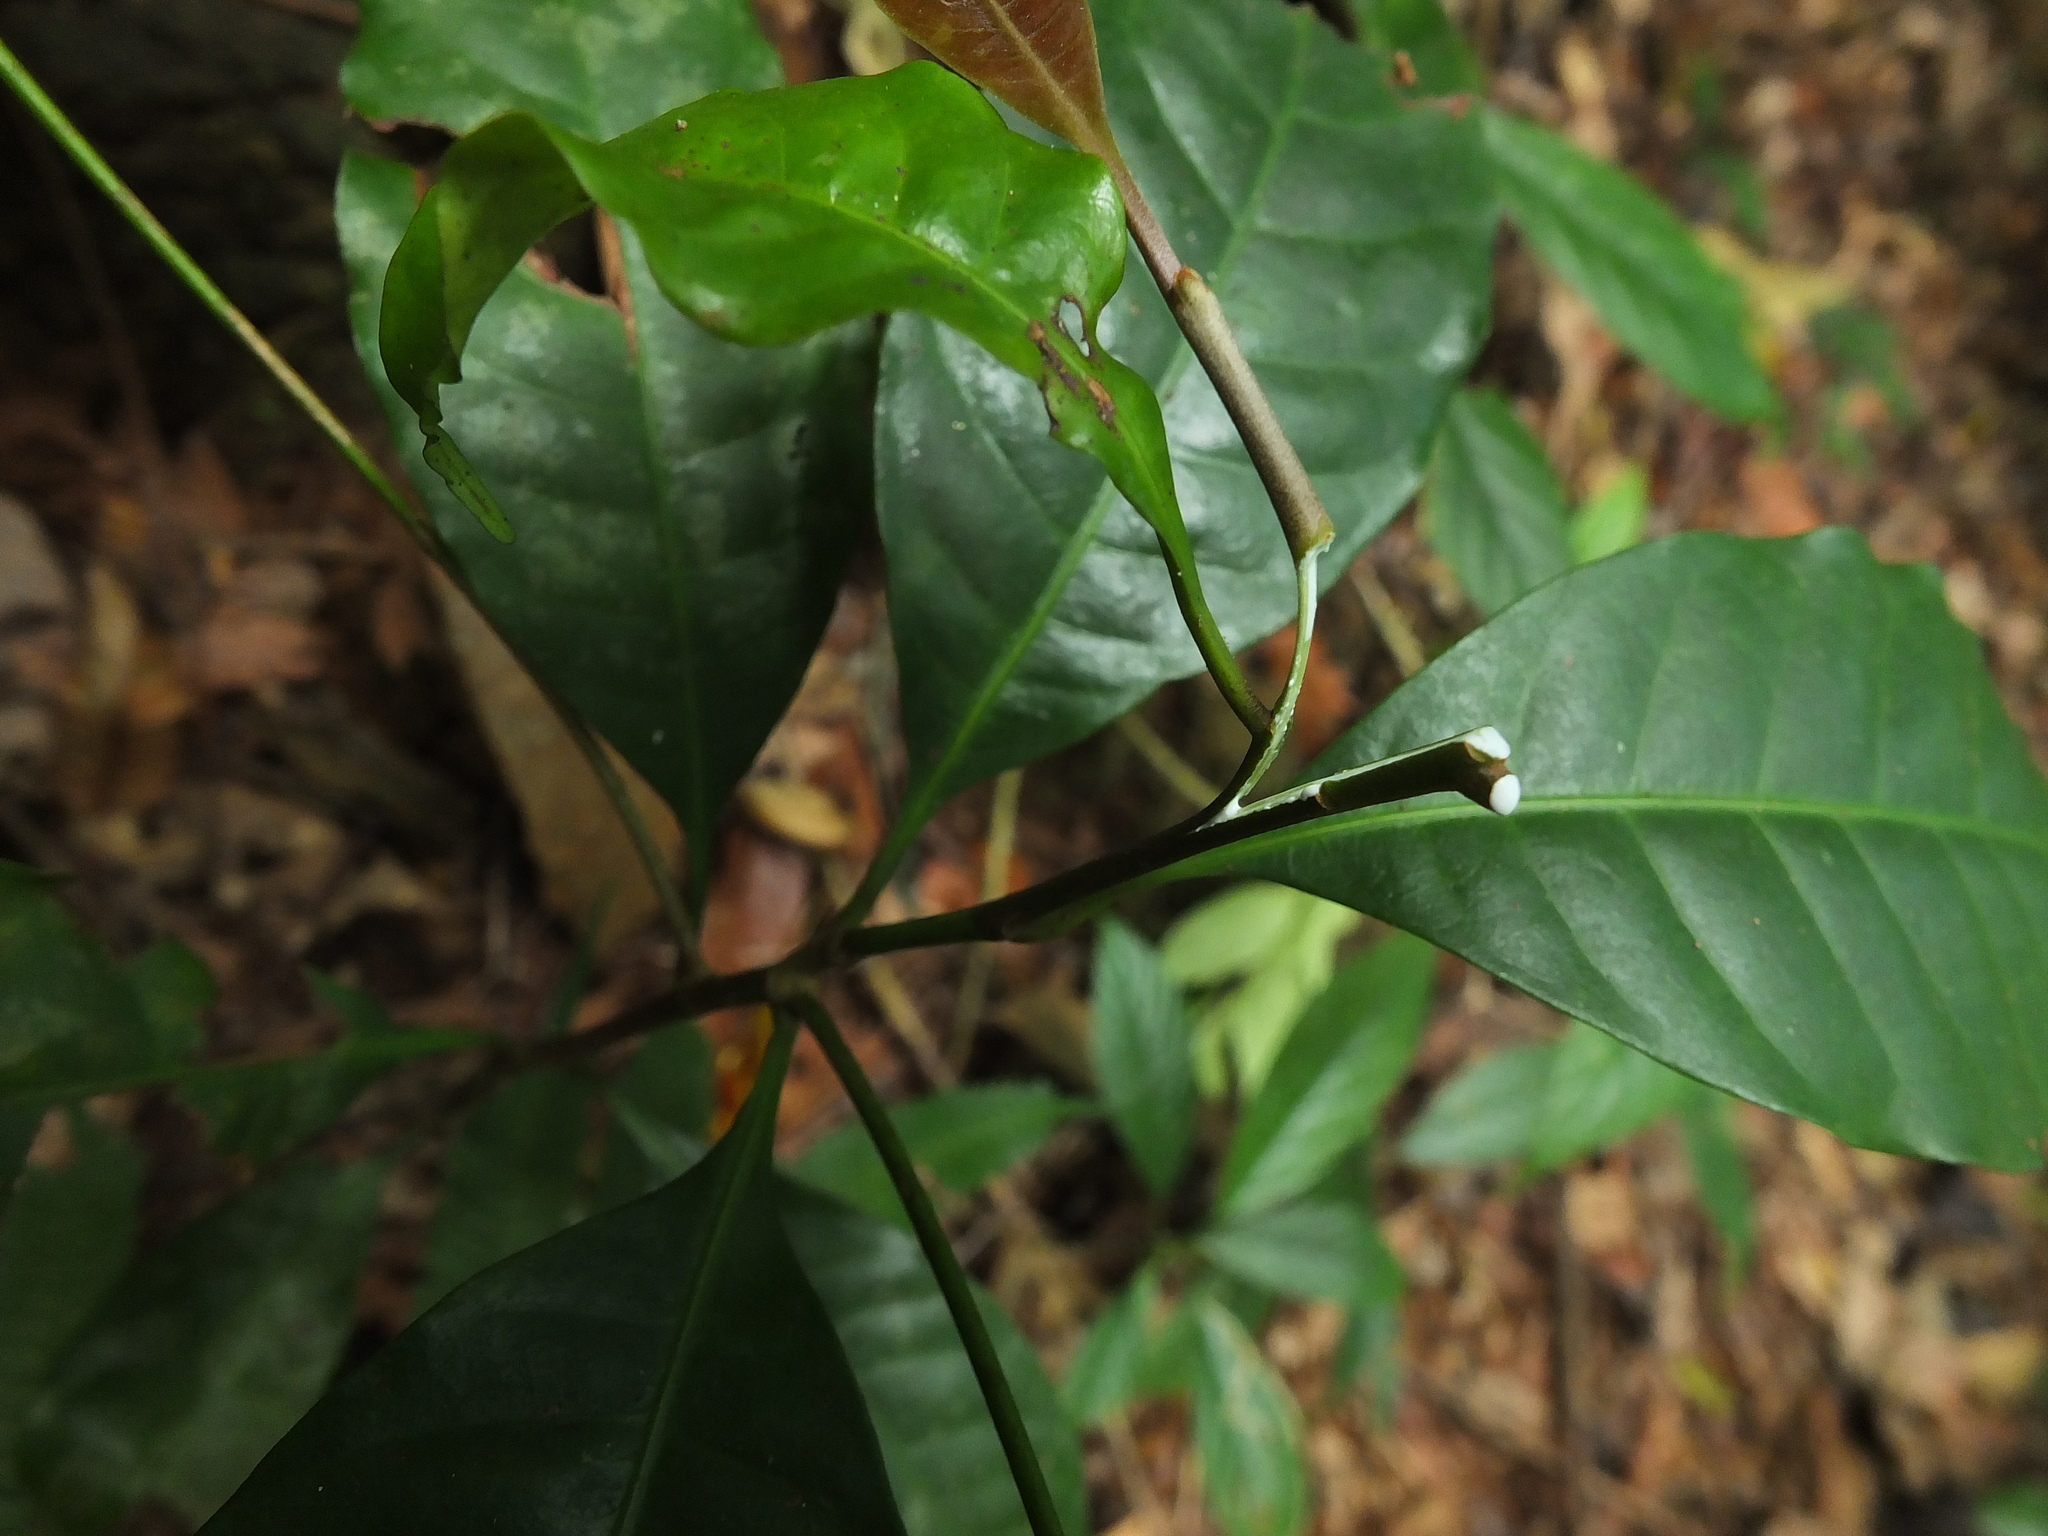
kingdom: Plantae
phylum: Tracheophyta
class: Magnoliopsida
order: Ericales
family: Sapotaceae
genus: Palaquium
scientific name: Palaquium ellipticum
